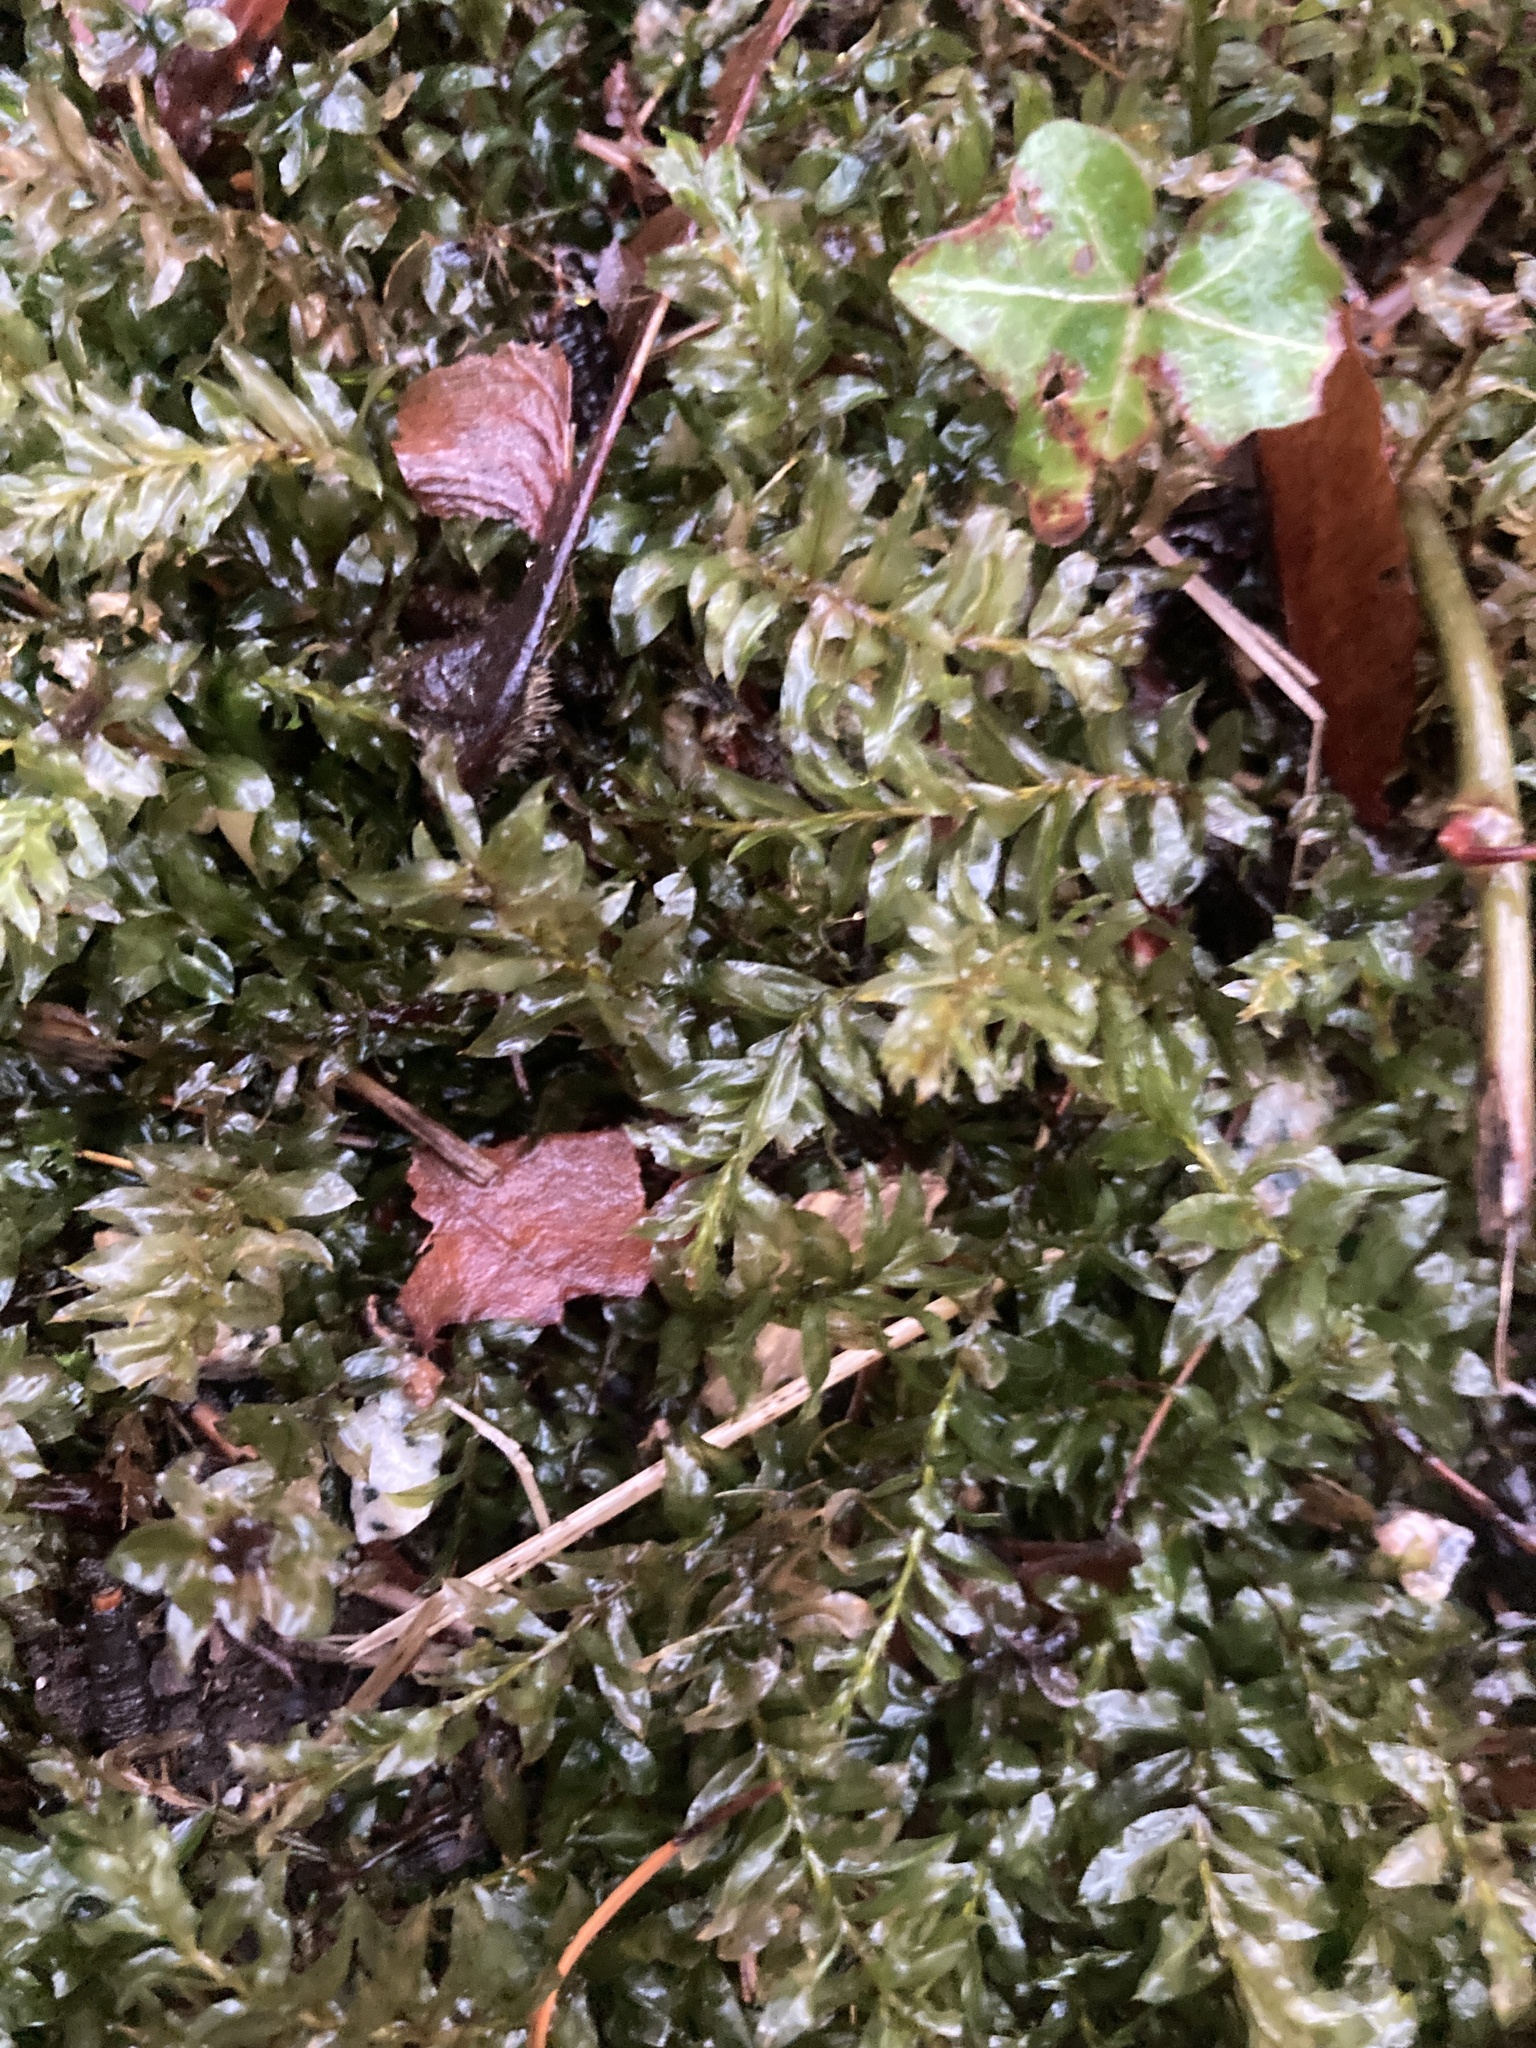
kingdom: Plantae
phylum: Bryophyta
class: Bryopsida
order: Bryales
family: Mniaceae
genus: Plagiomnium
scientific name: Plagiomnium insigne
